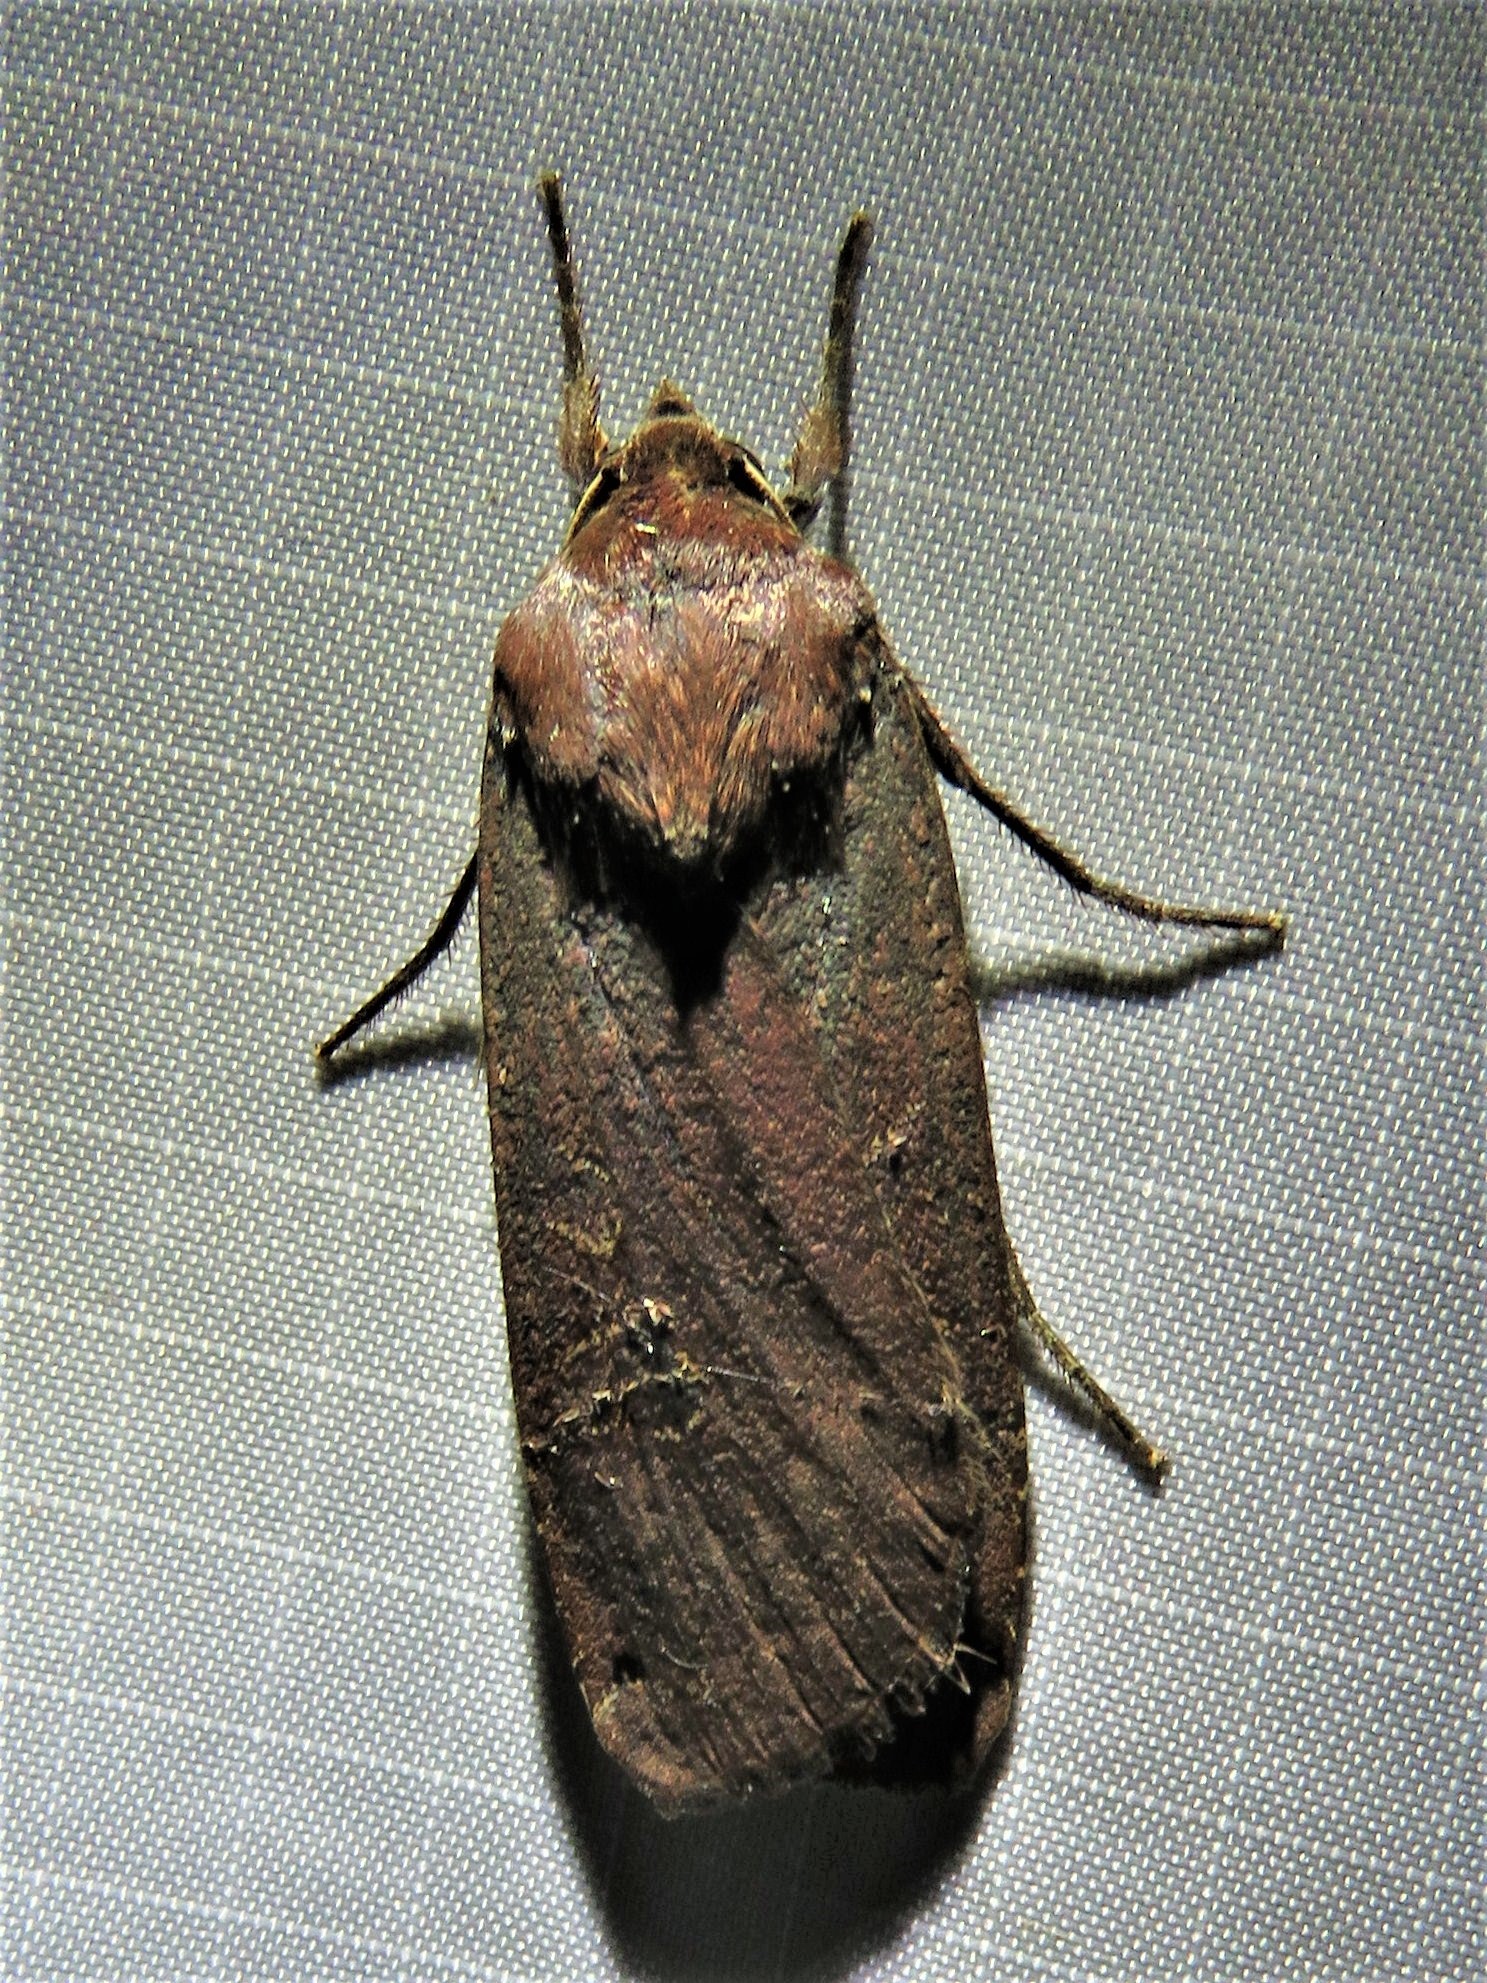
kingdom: Animalia
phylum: Arthropoda
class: Insecta
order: Lepidoptera
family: Noctuidae
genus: Noctua
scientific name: Noctua pronuba
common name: Large yellow underwing
